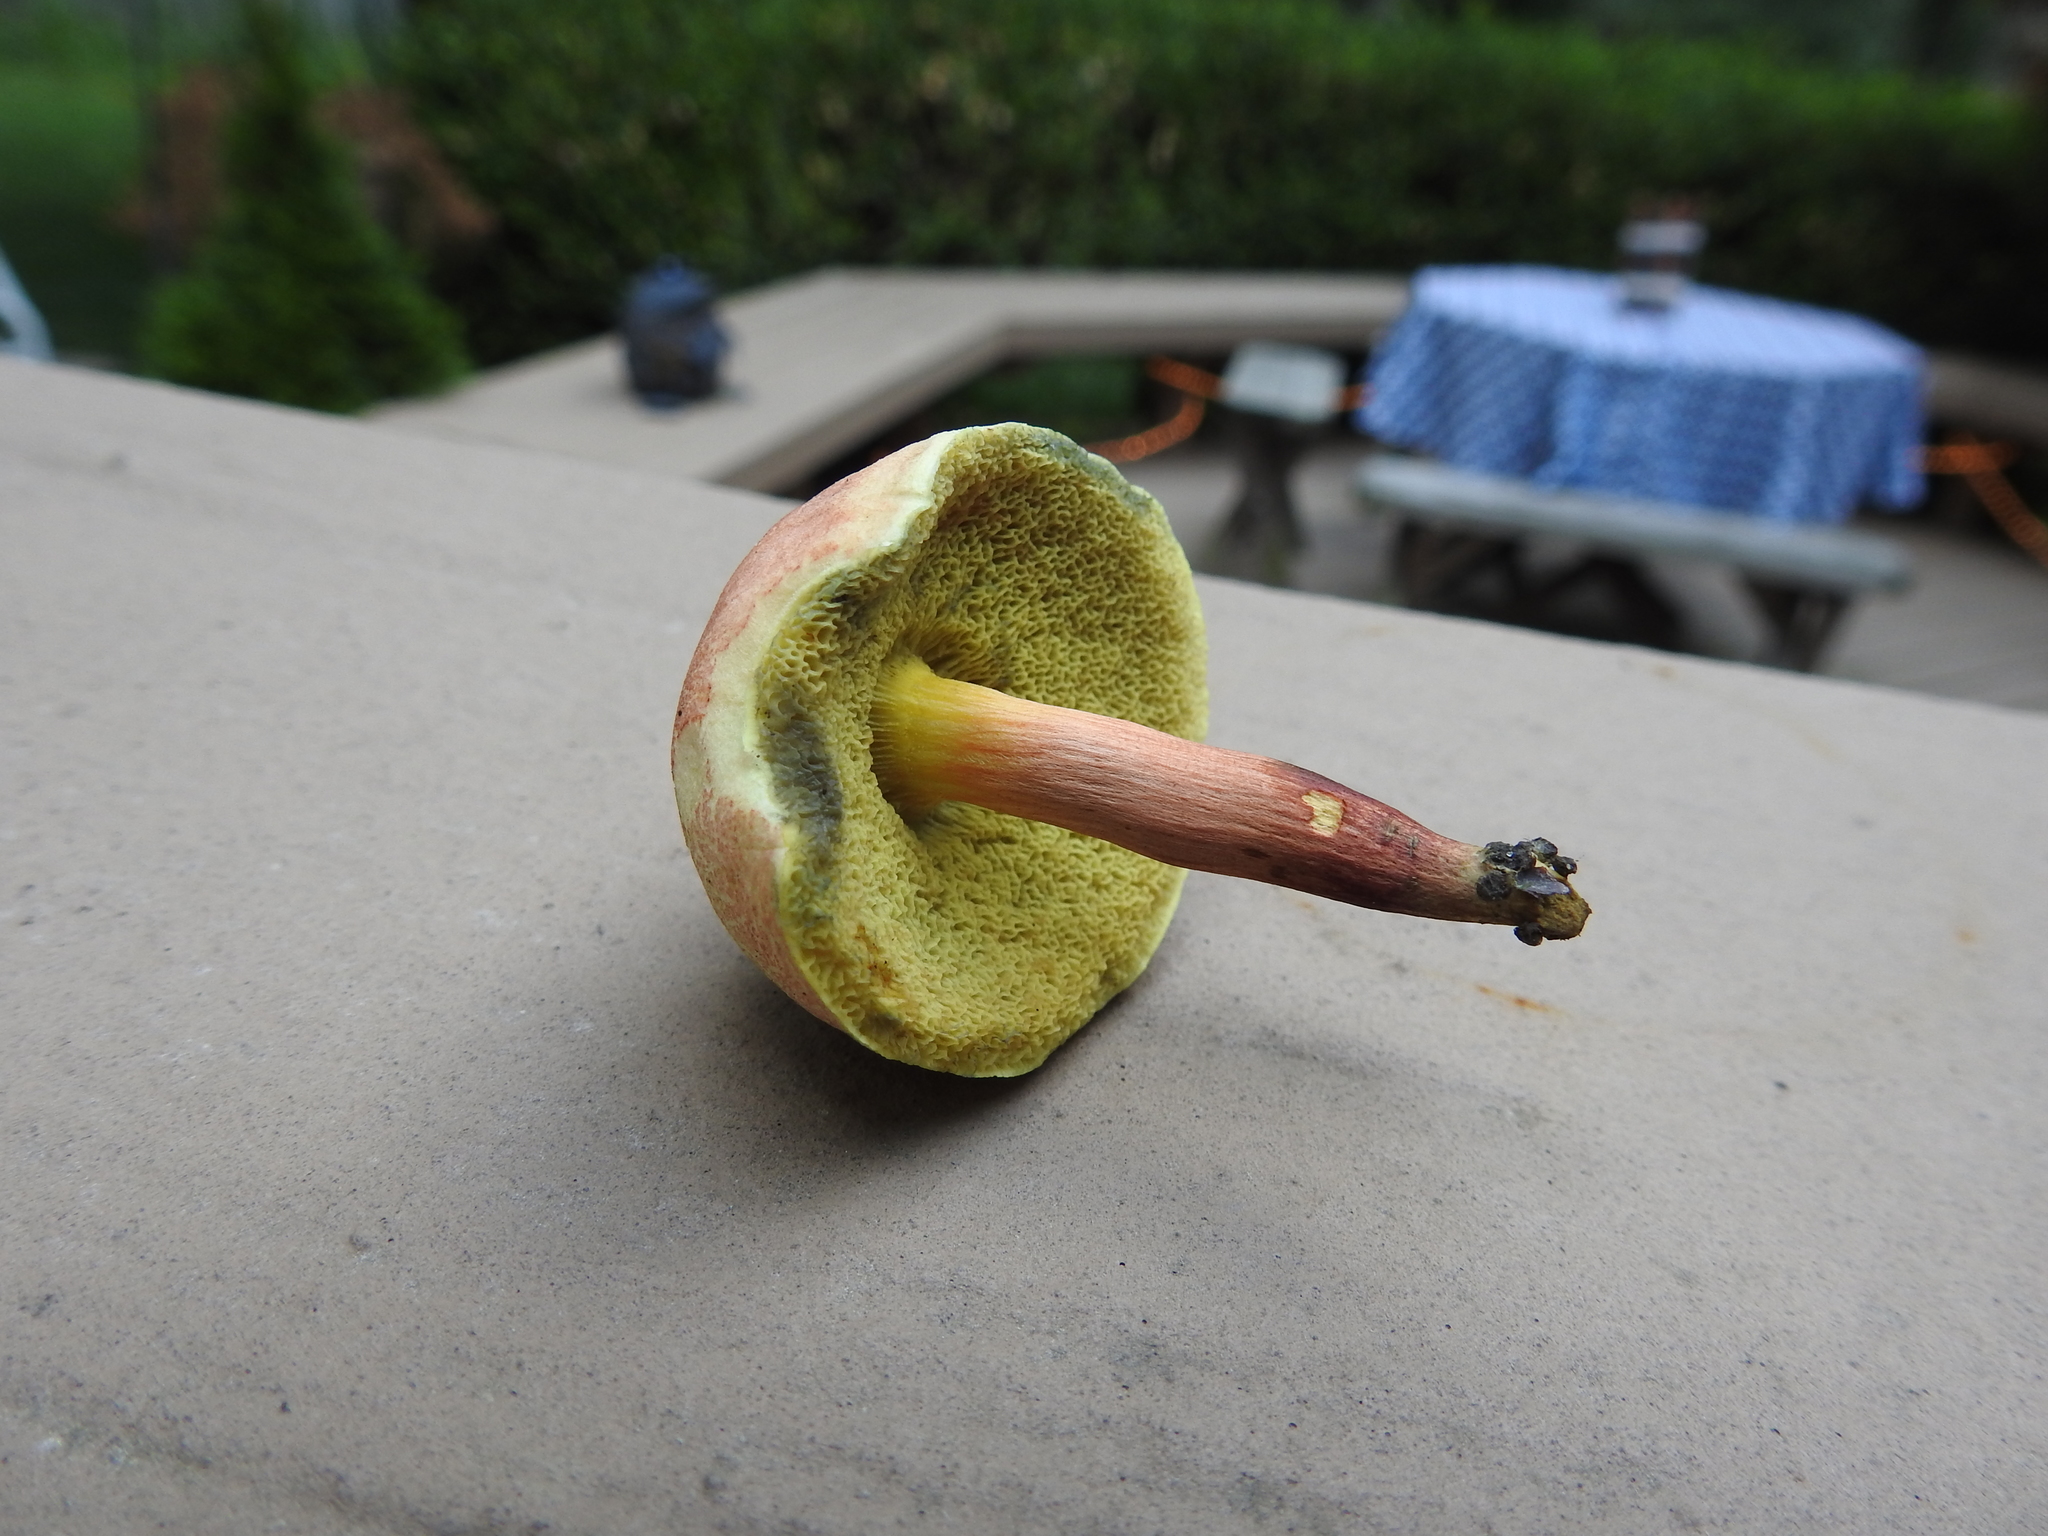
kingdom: Fungi
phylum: Basidiomycota
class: Agaricomycetes
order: Boletales
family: Boletaceae
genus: Boletus
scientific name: Boletus subfraternus
